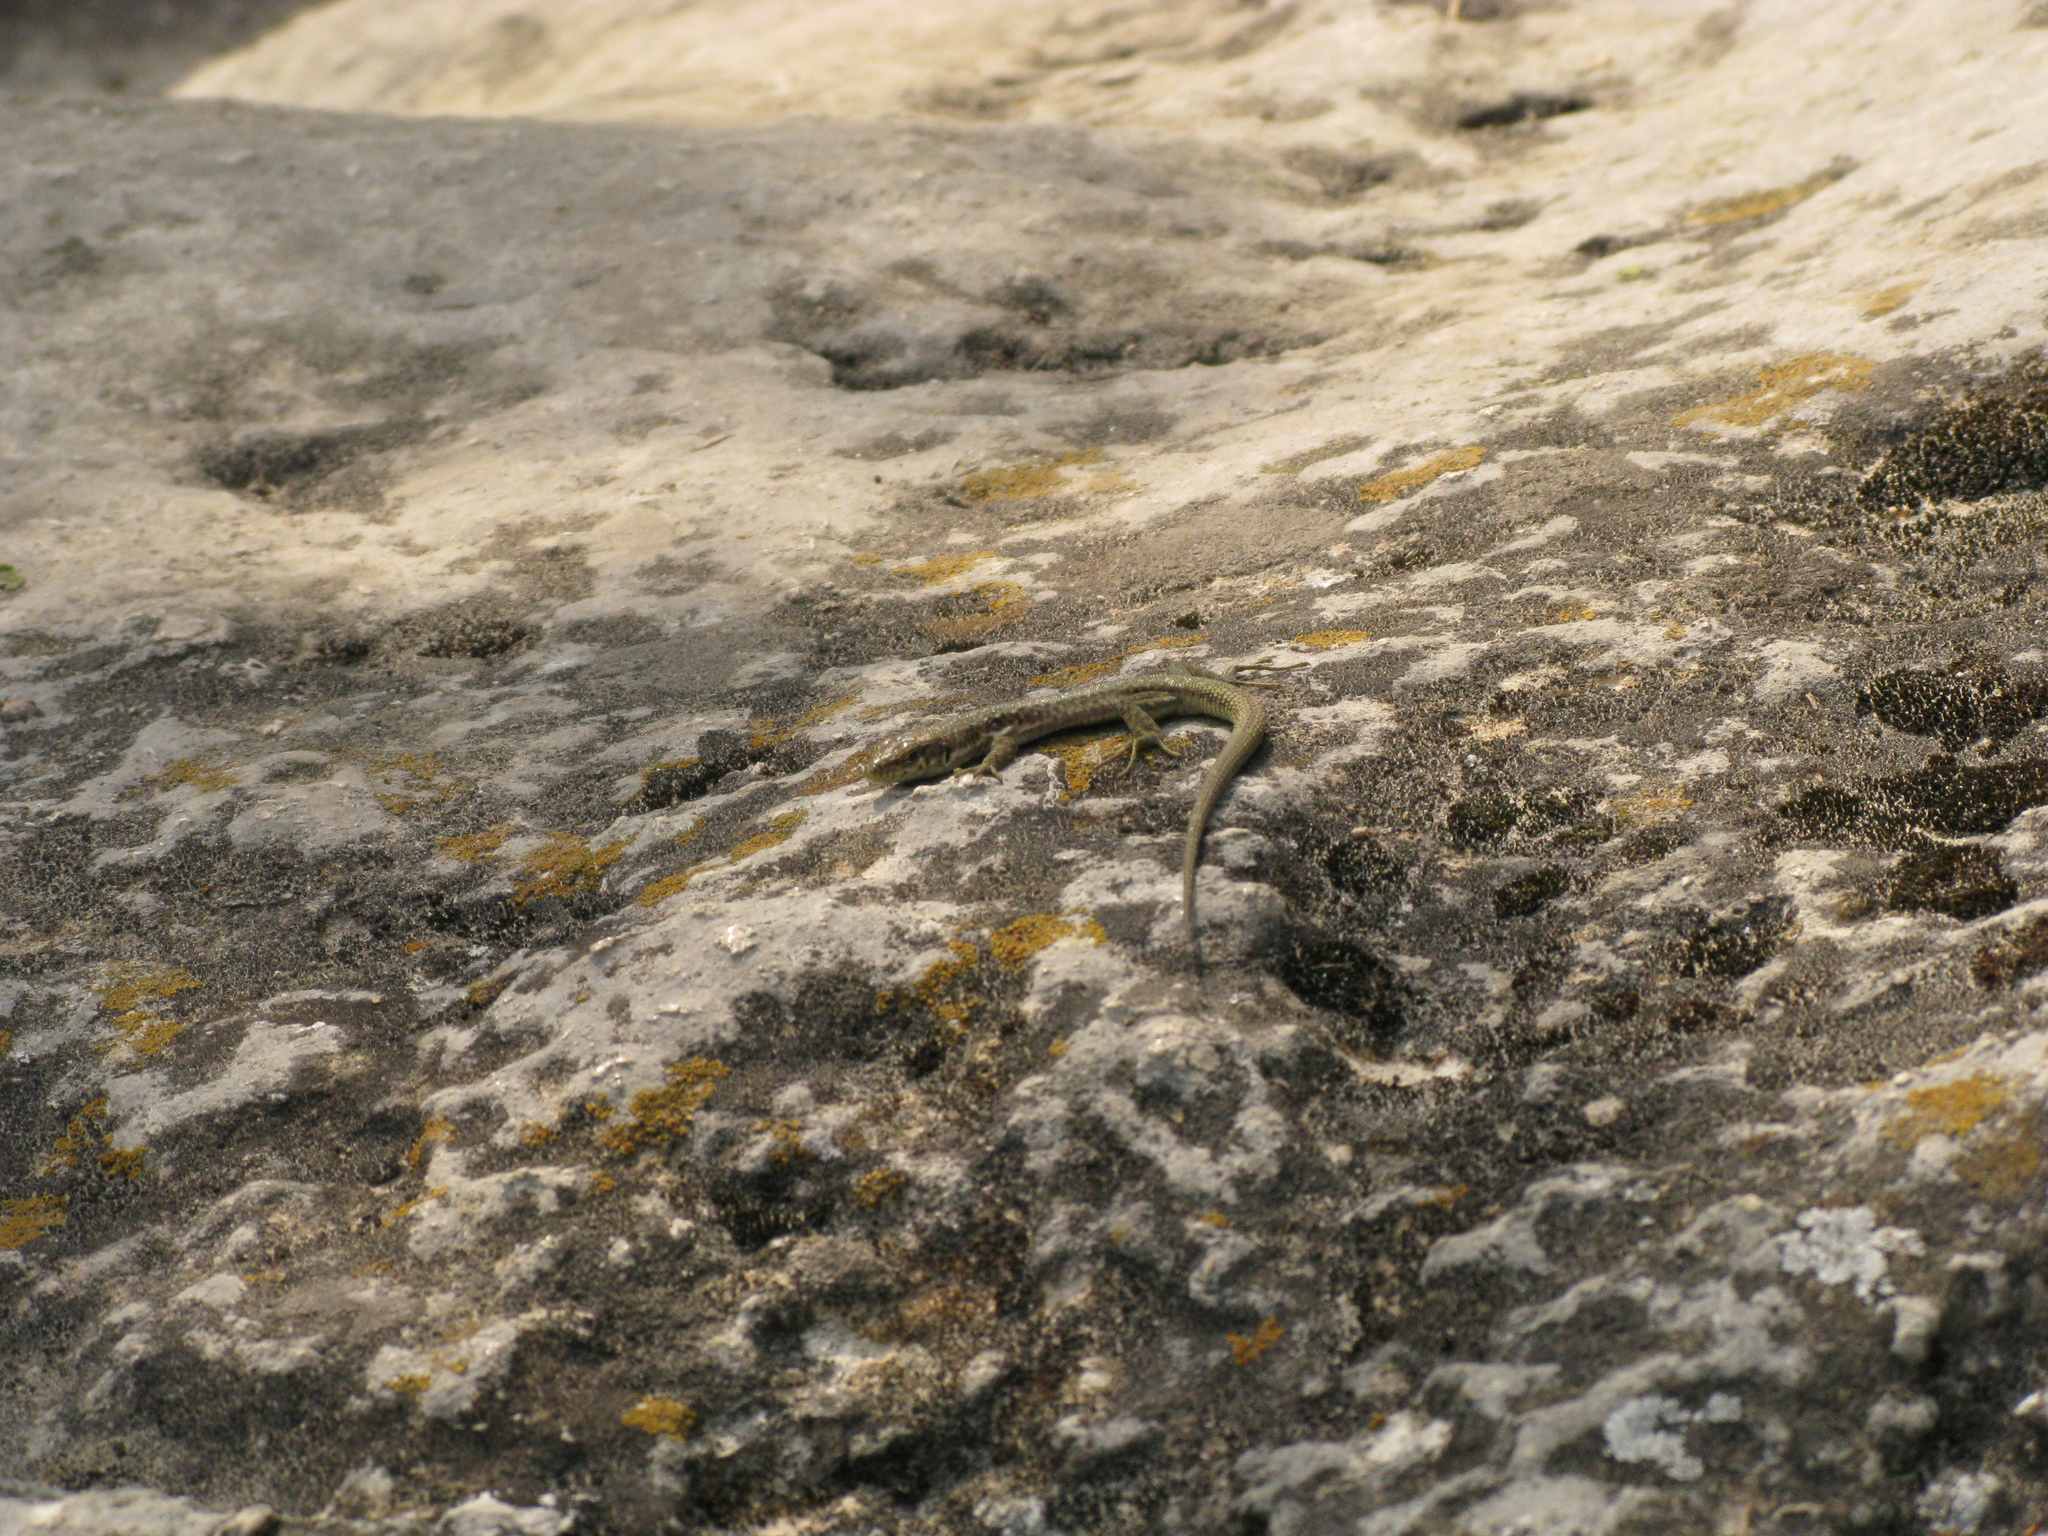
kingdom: Animalia
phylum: Chordata
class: Squamata
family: Lacertidae
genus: Darevskia
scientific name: Darevskia lindholmi
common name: Crimean rock lizard
